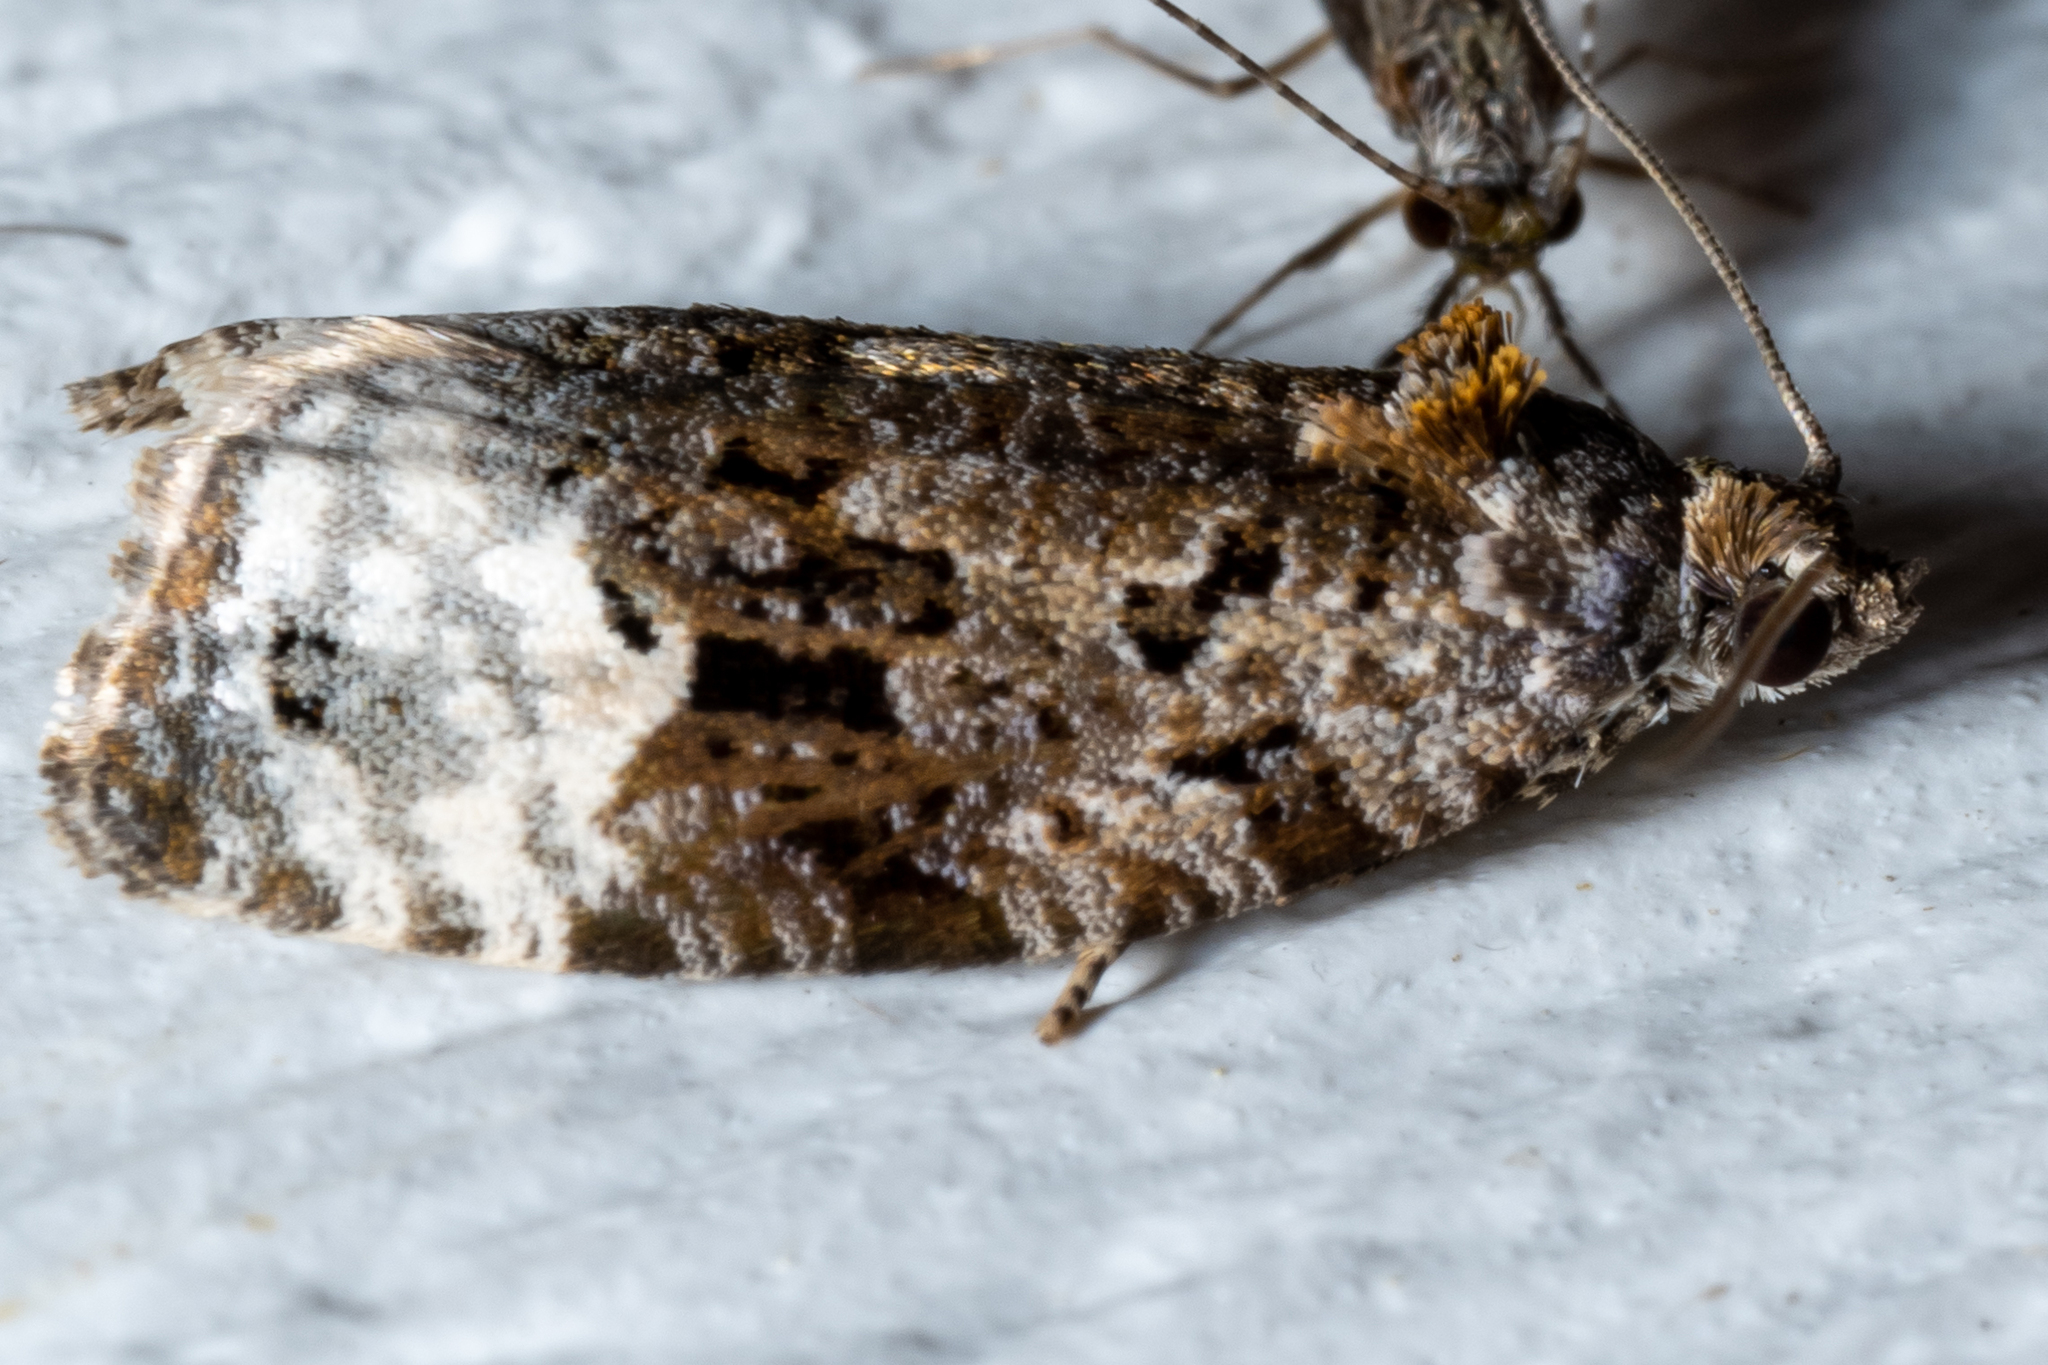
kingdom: Animalia
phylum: Arthropoda
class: Insecta
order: Lepidoptera
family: Tortricidae
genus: Apotomis
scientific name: Apotomis capreana
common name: Sallow marble
